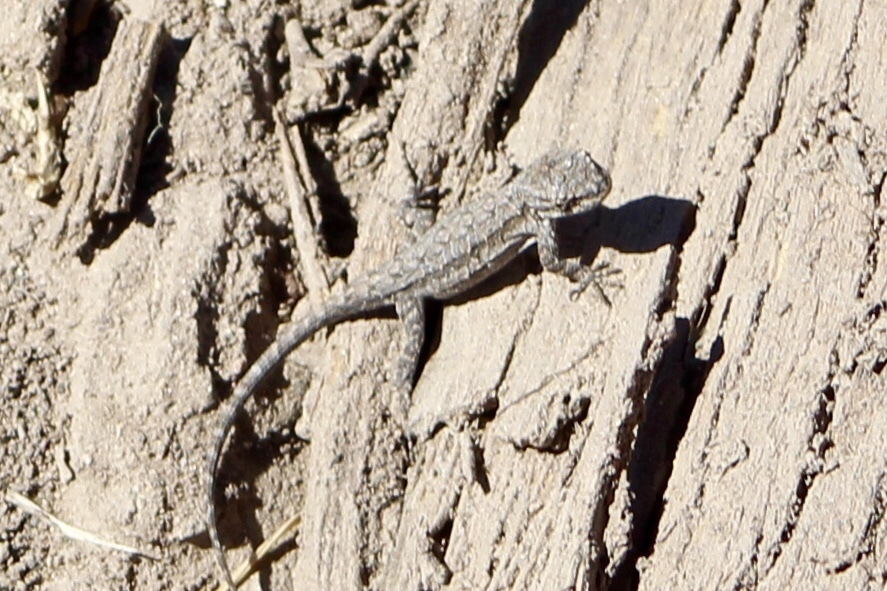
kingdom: Animalia
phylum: Chordata
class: Squamata
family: Phrynosomatidae
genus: Urosaurus
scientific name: Urosaurus ornatus
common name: Ornate tree lizard
